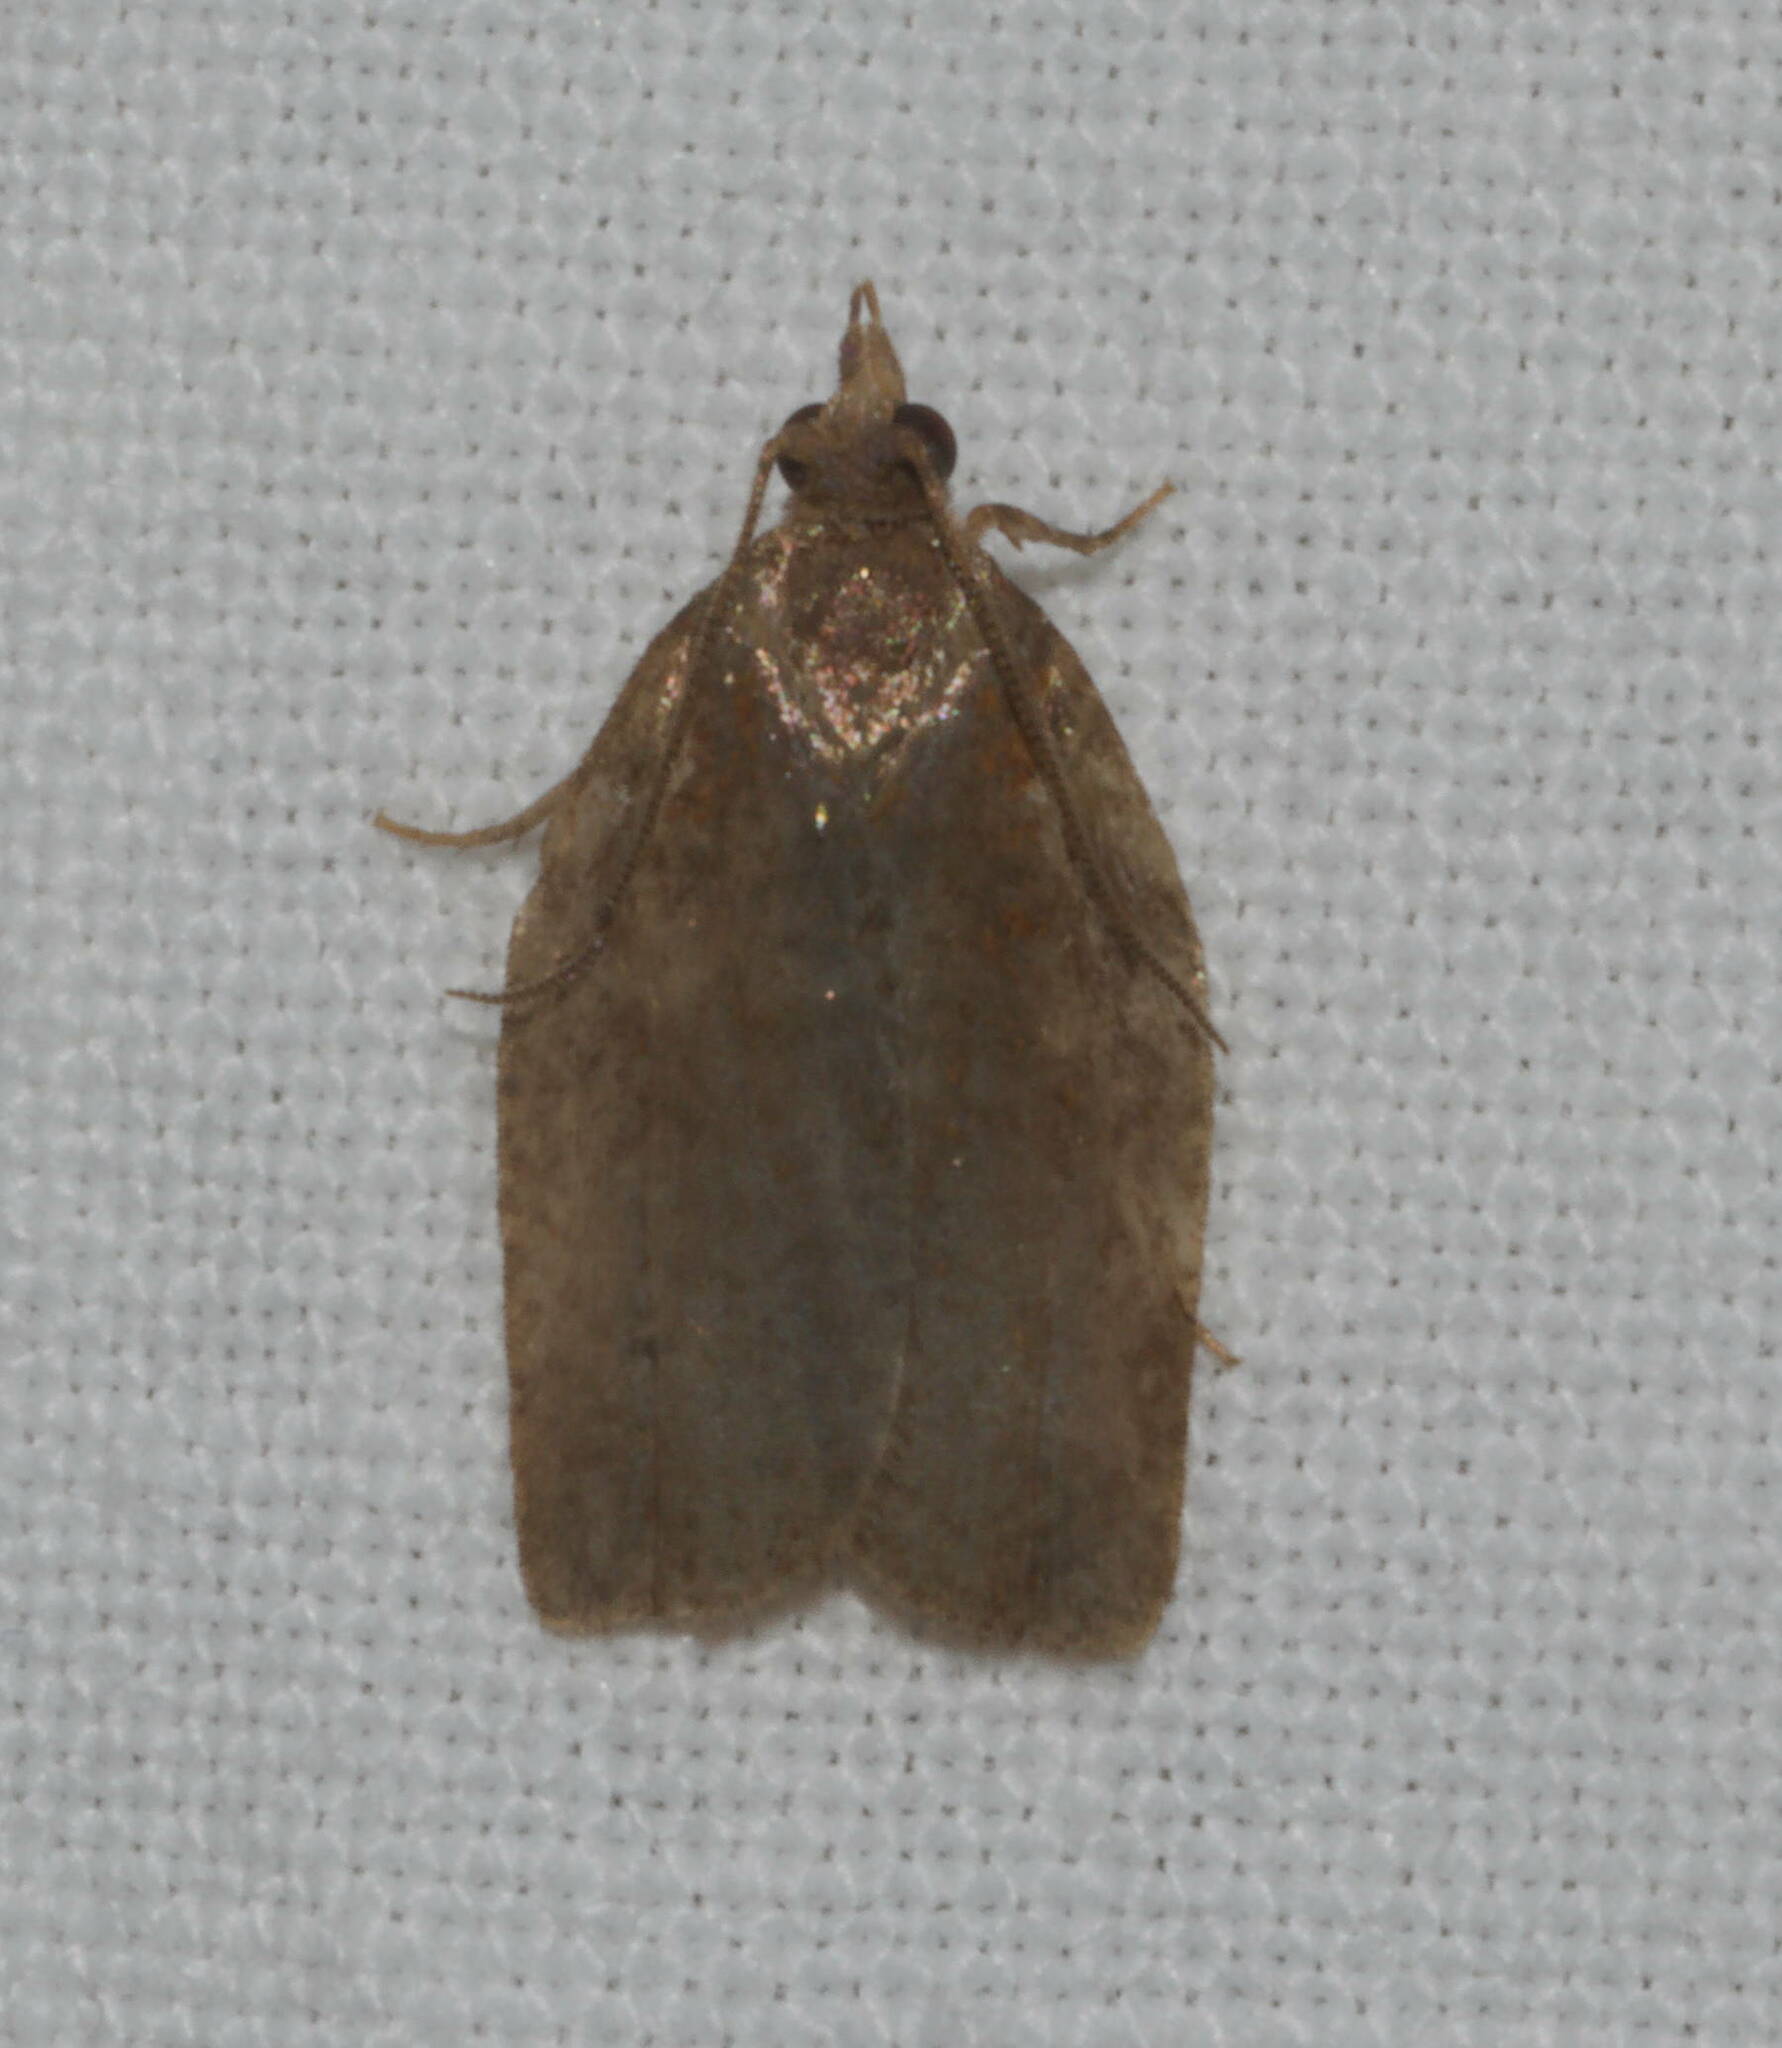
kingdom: Animalia
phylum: Arthropoda
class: Insecta
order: Lepidoptera
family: Tortricidae
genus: Spheterista
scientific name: Spheterista pleonectes
